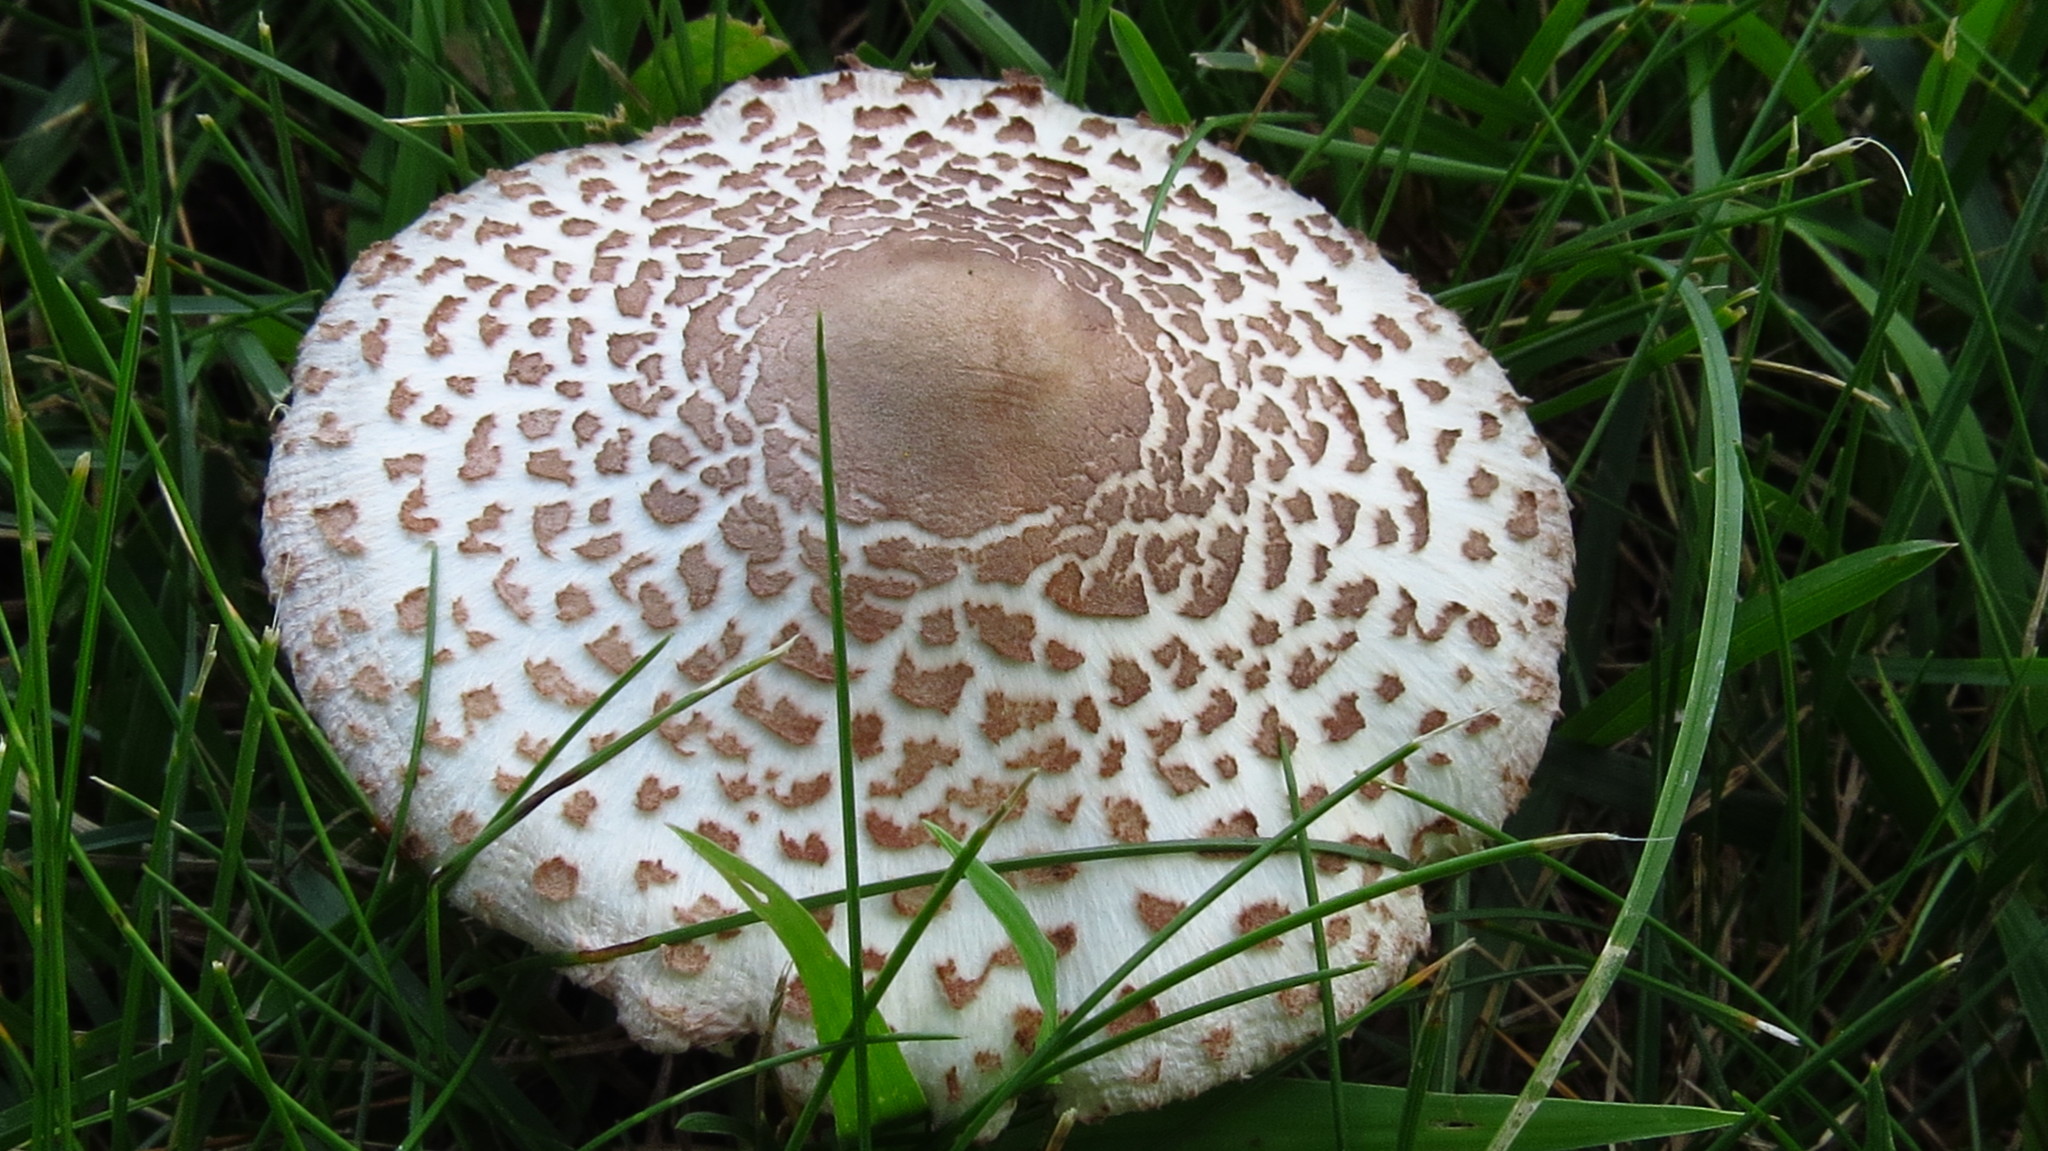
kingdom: Fungi
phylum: Basidiomycota
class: Agaricomycetes
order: Agaricales
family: Agaricaceae
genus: Leucoagaricus
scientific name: Leucoagaricus americanus
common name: Reddening lepiota
